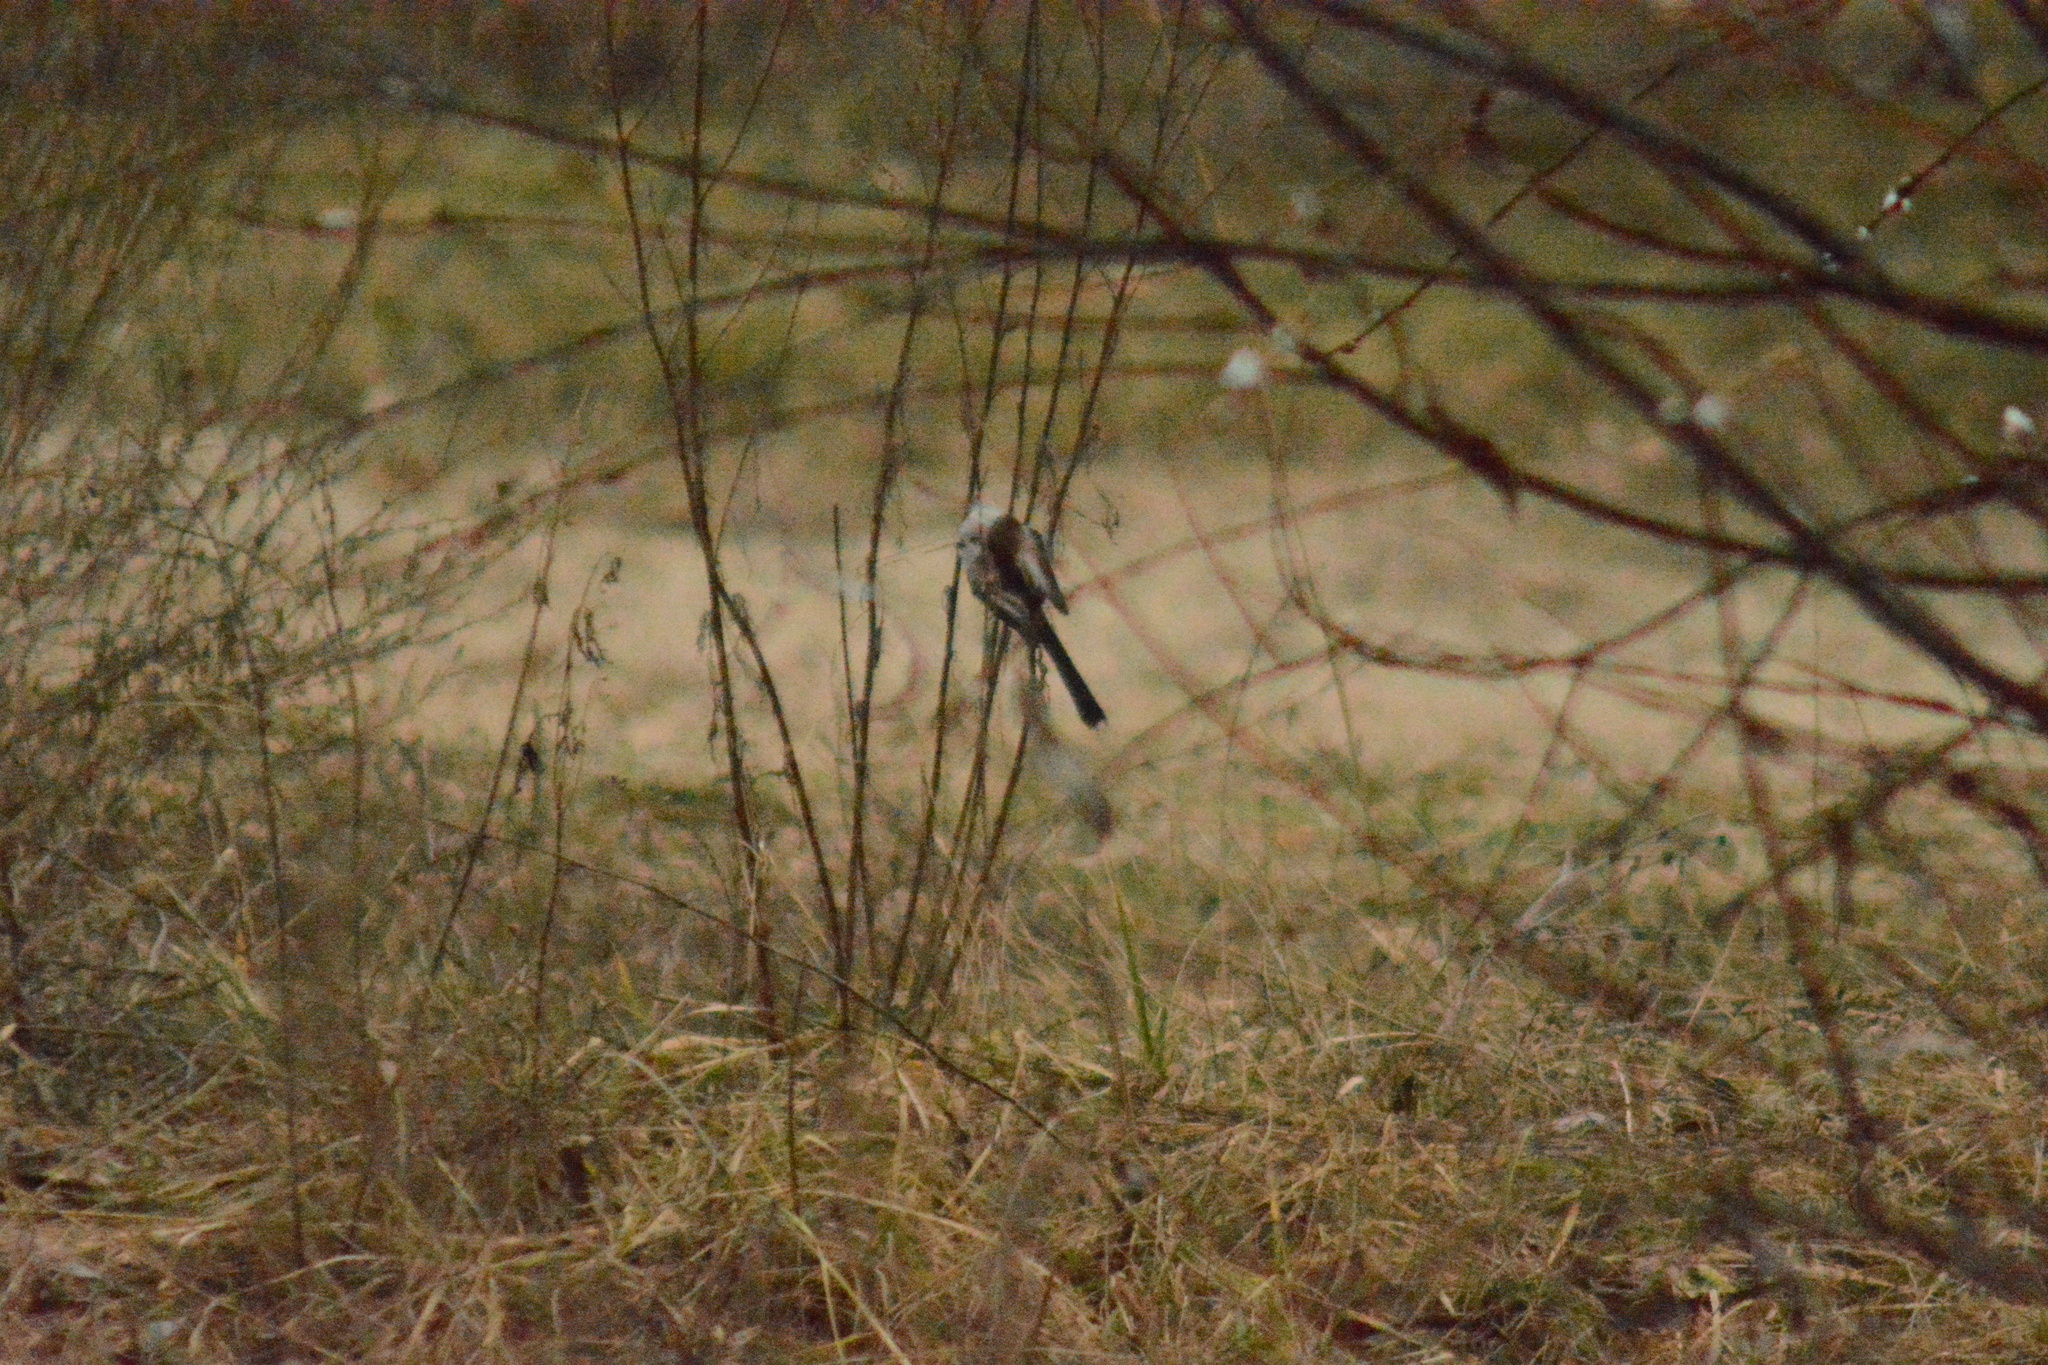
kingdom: Animalia
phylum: Chordata
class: Aves
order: Passeriformes
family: Aegithalidae
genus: Aegithalos
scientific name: Aegithalos caudatus
